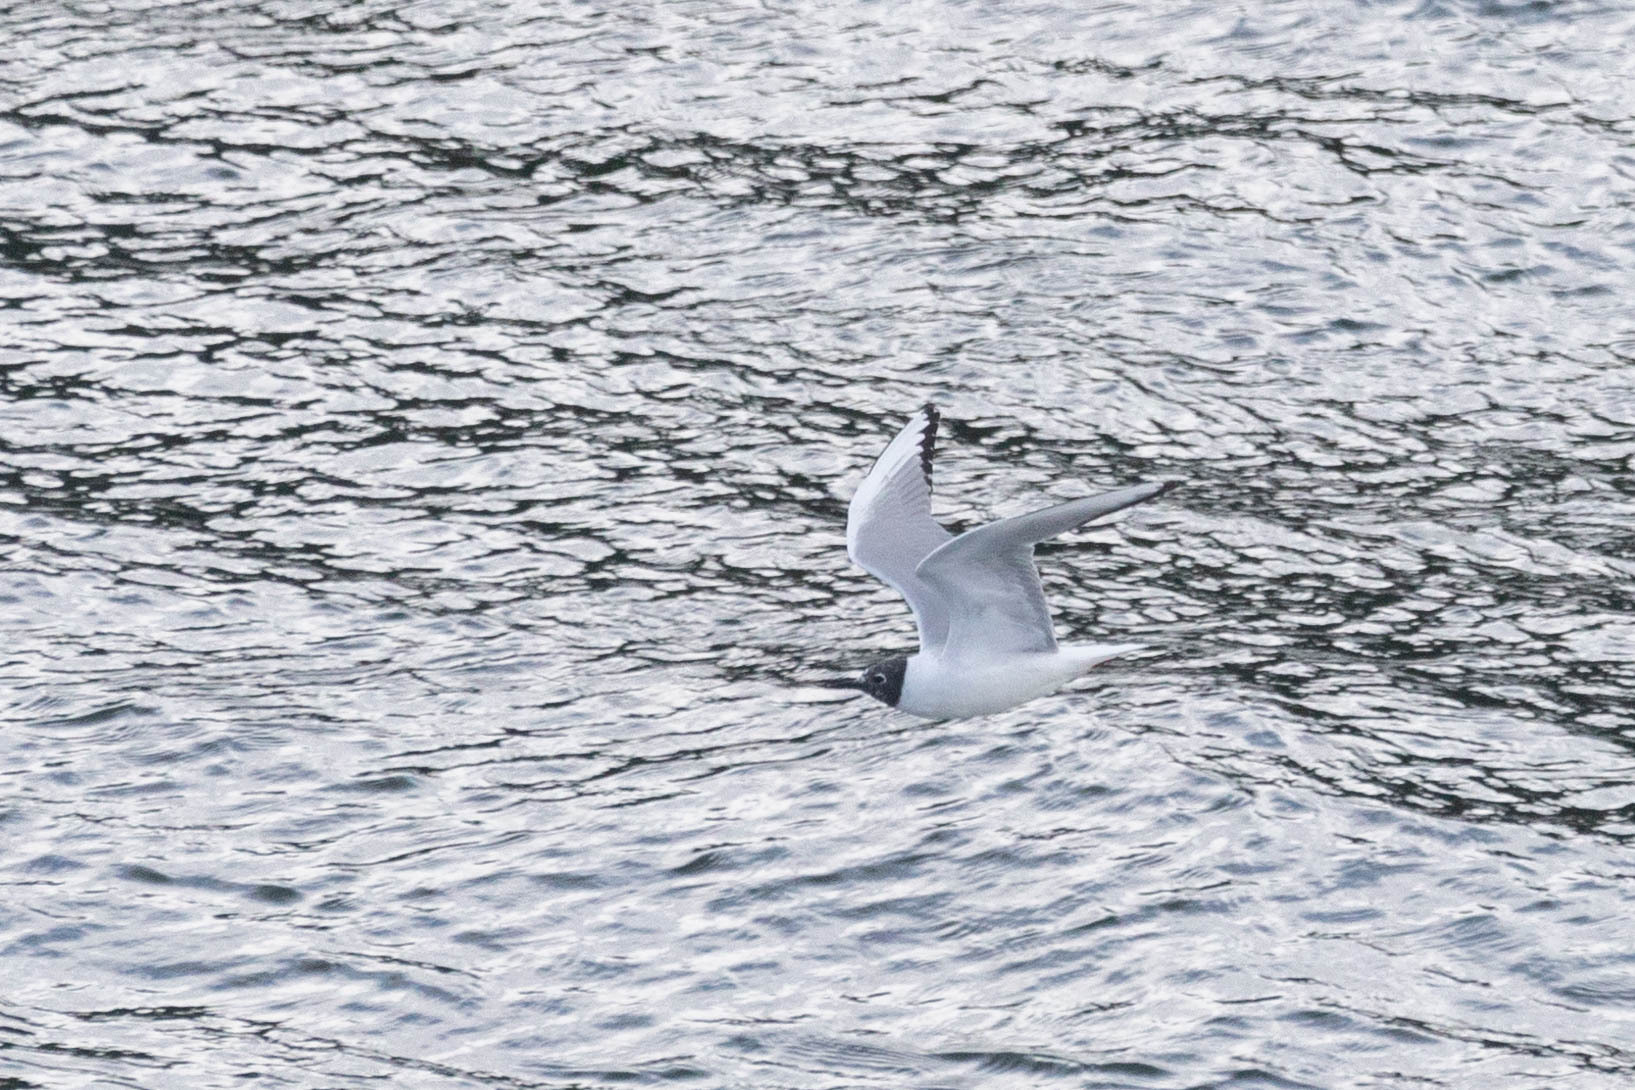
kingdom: Animalia
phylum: Chordata
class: Aves
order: Charadriiformes
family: Laridae
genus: Chroicocephalus
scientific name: Chroicocephalus philadelphia
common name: Bonaparte's gull
